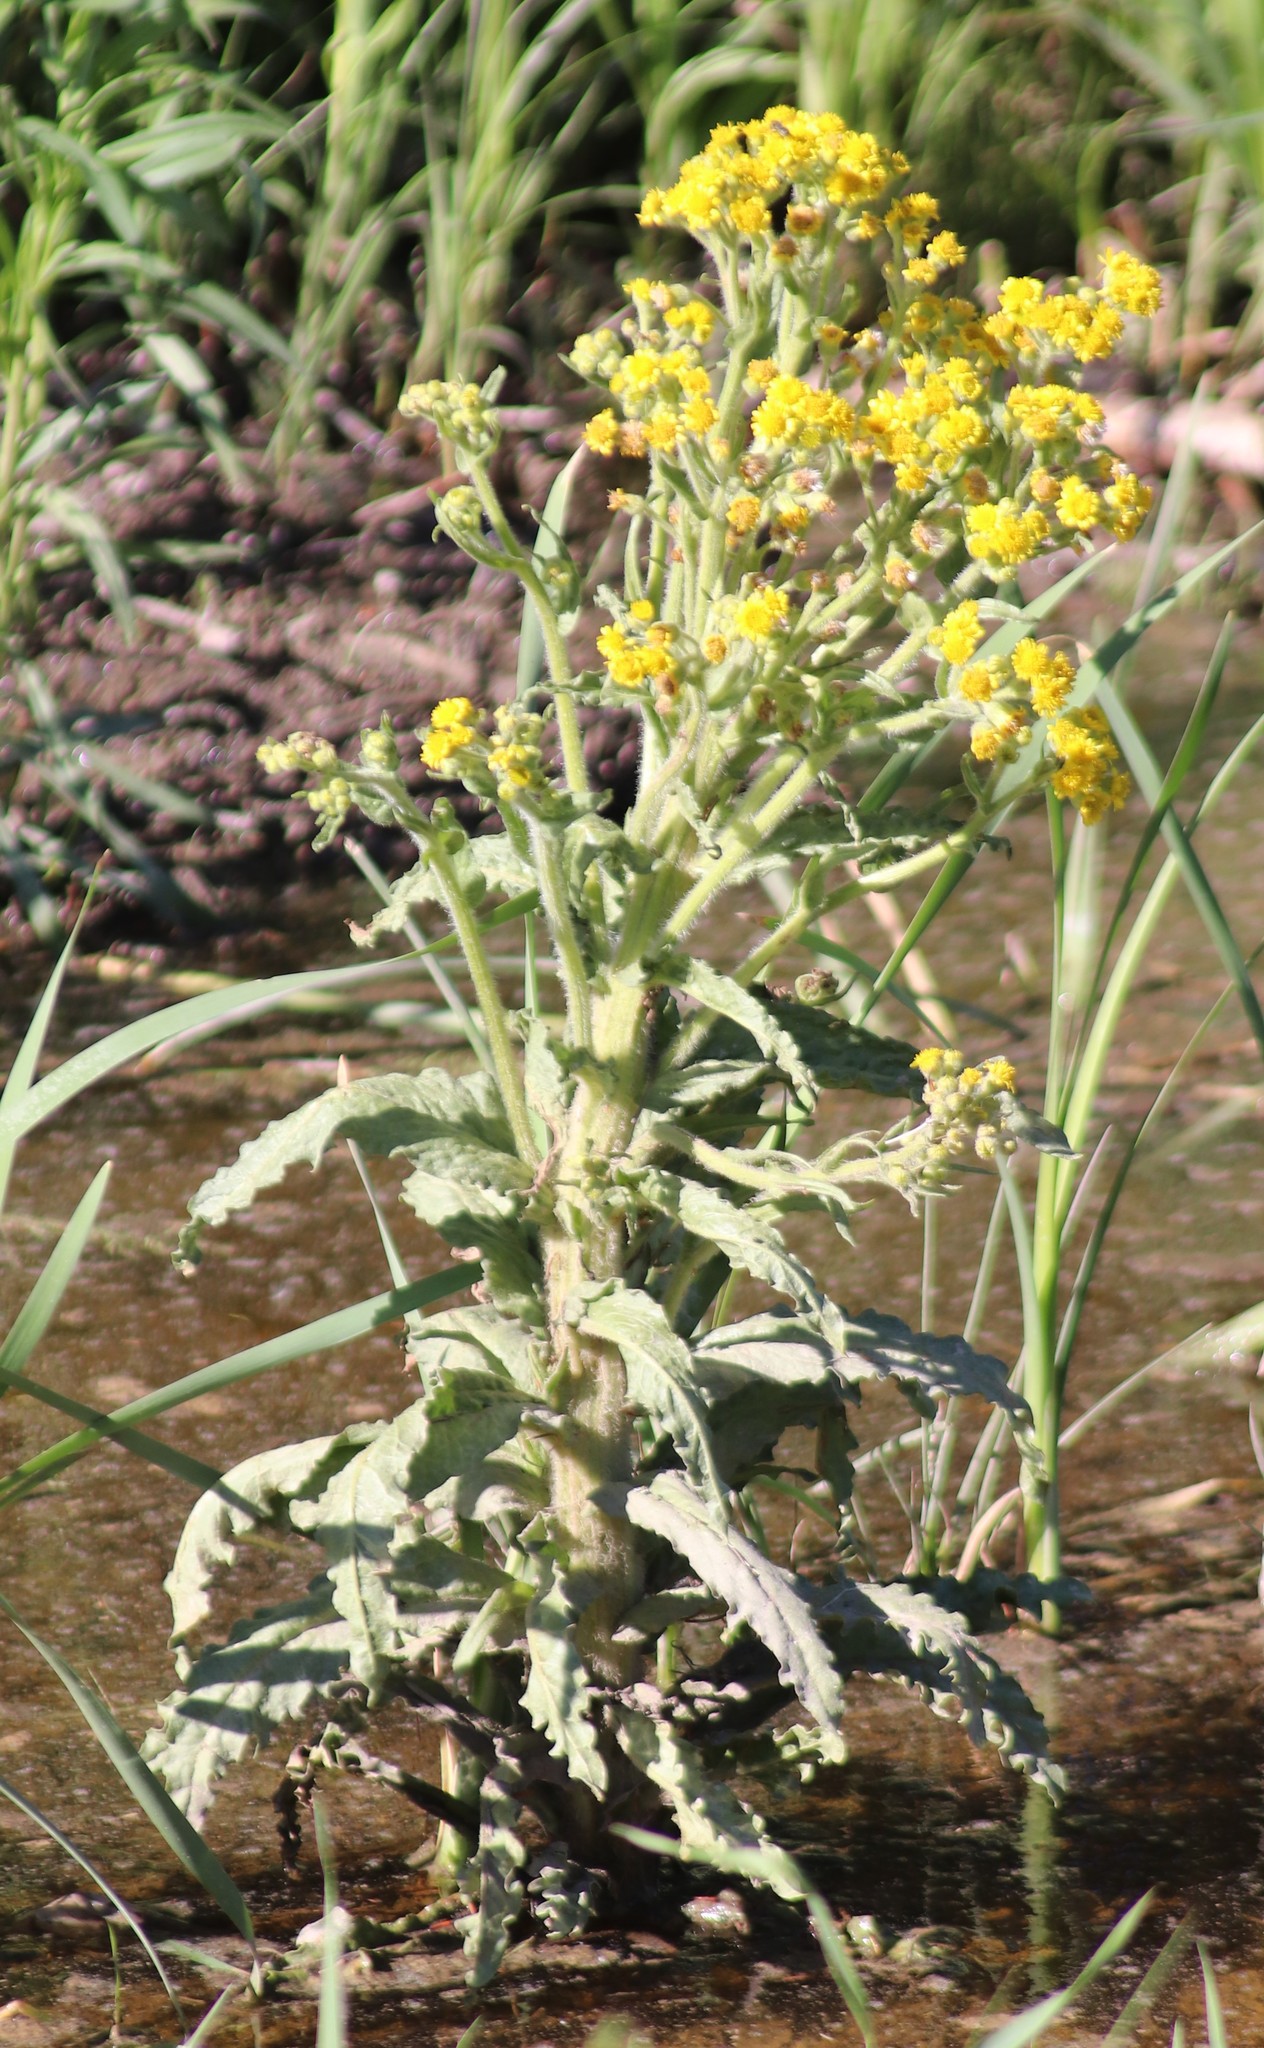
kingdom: Plantae
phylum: Tracheophyta
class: Magnoliopsida
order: Asterales
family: Asteraceae
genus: Tephroseris
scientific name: Tephroseris palustris
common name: Marsh fleawort
